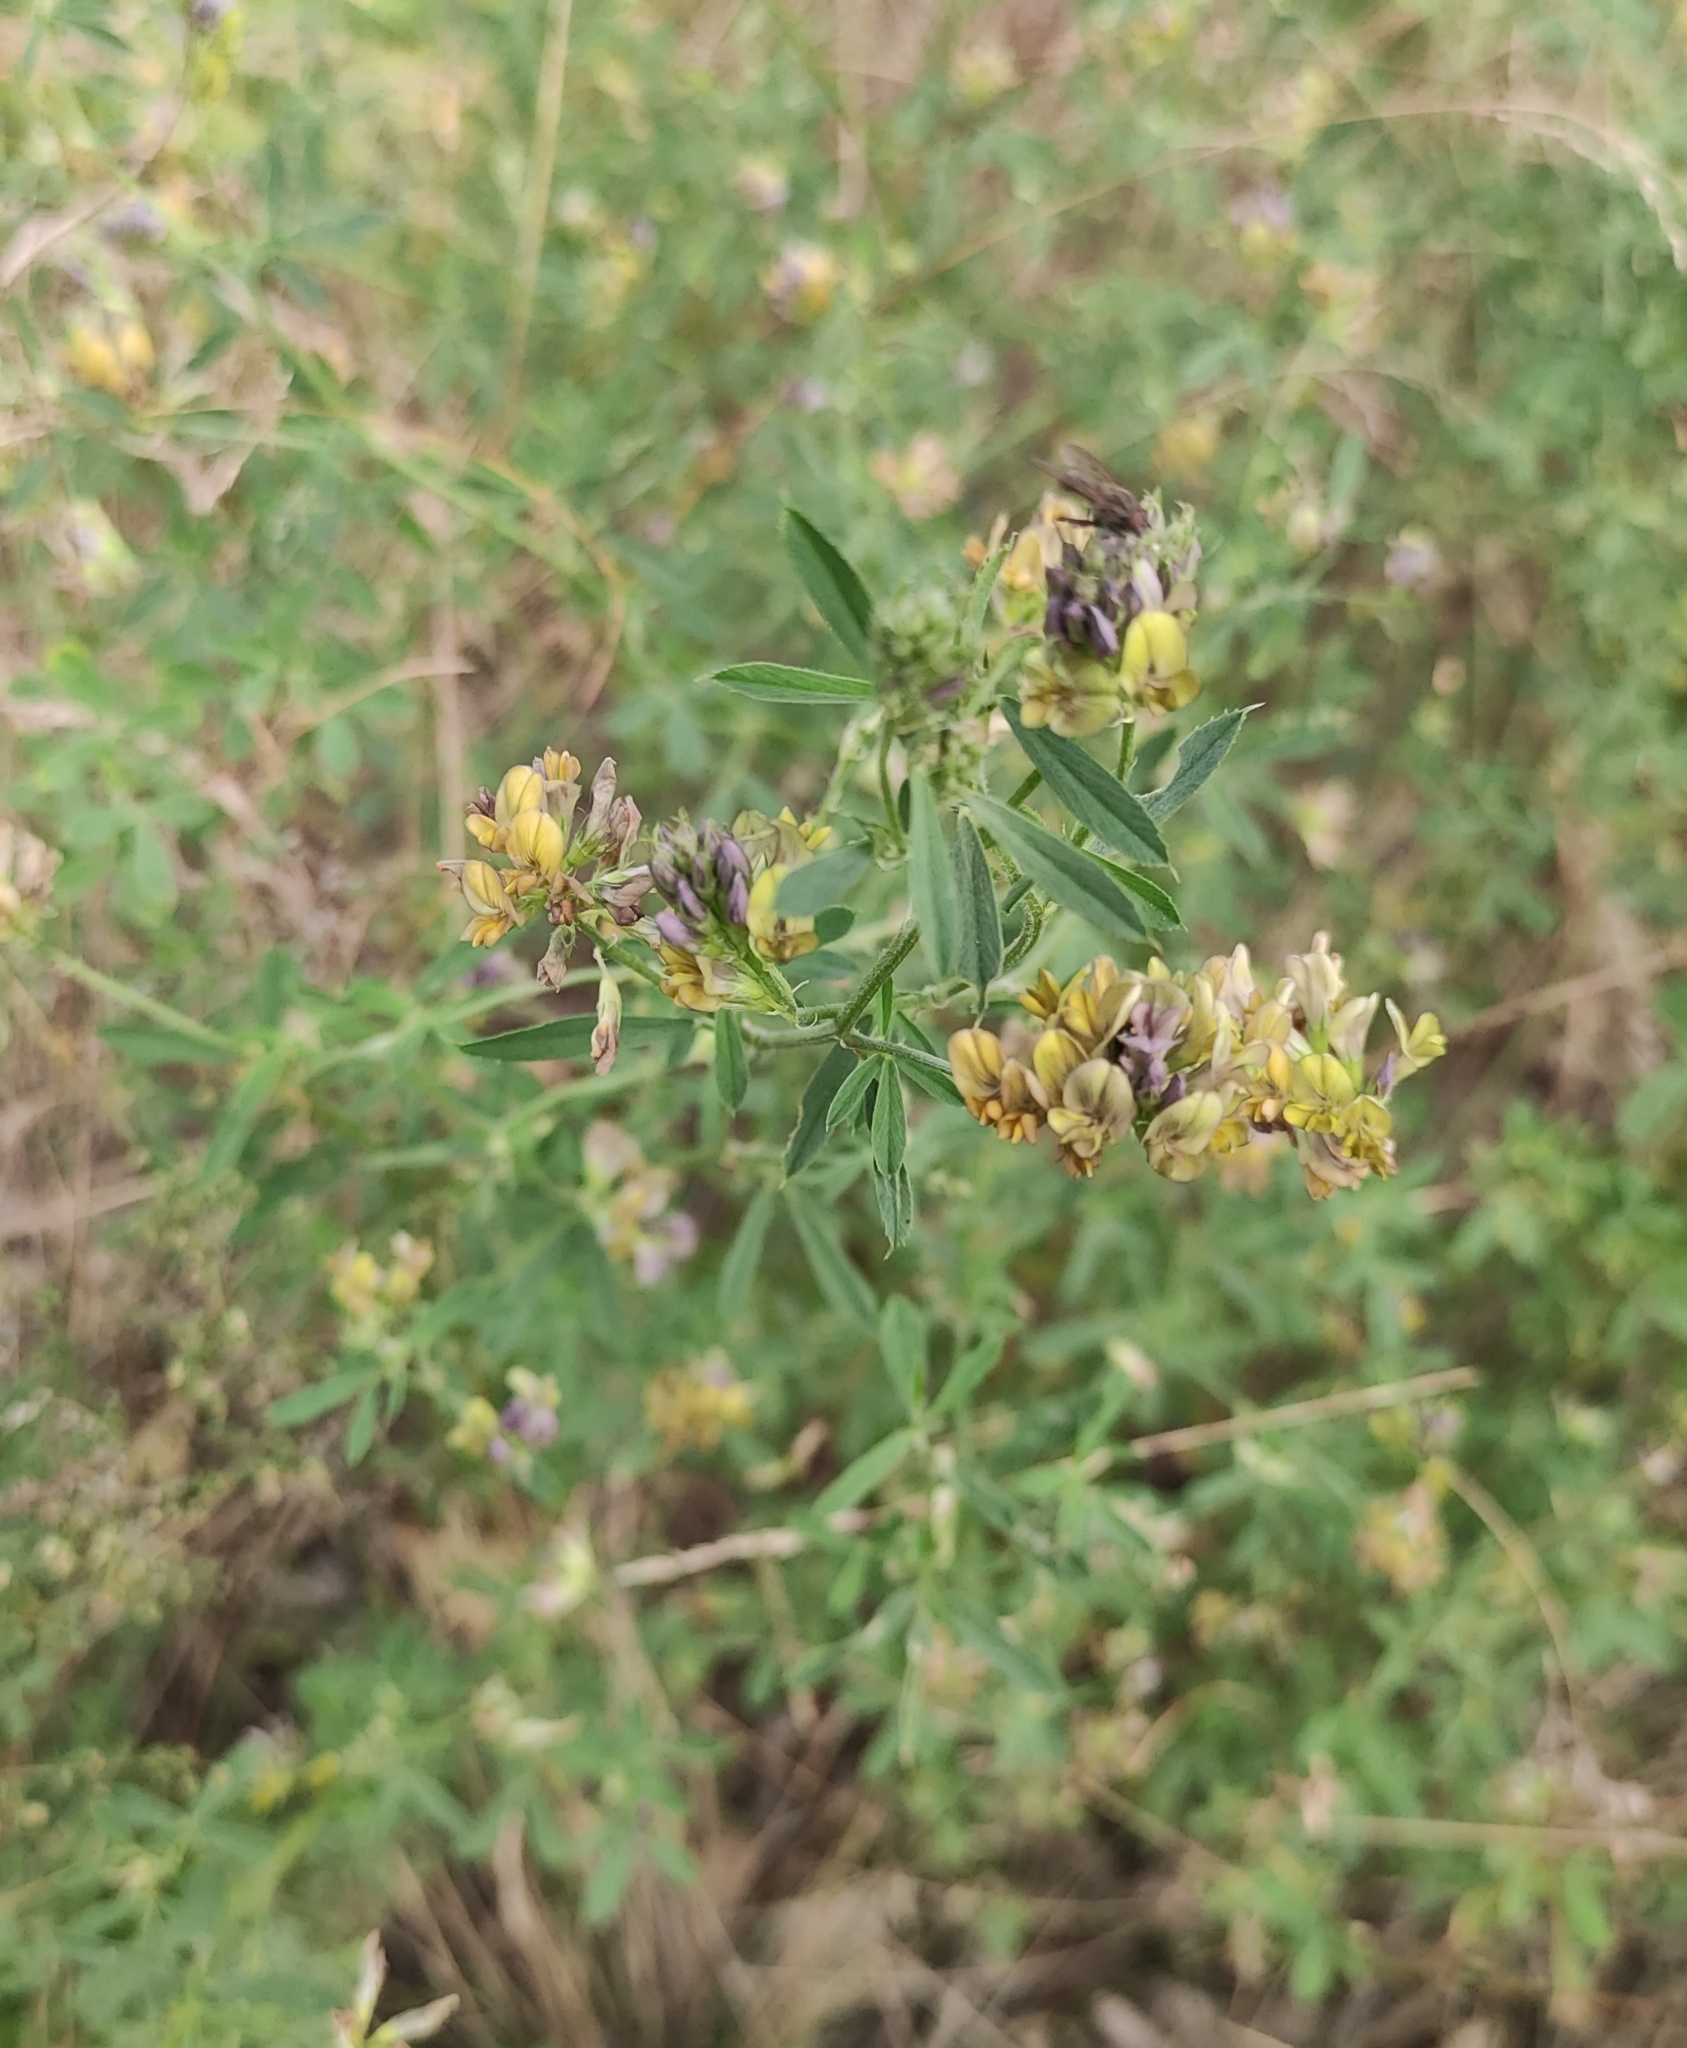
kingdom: Plantae
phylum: Tracheophyta
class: Magnoliopsida
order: Fabales
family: Fabaceae
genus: Medicago
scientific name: Medicago varia
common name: Sand lucerne
